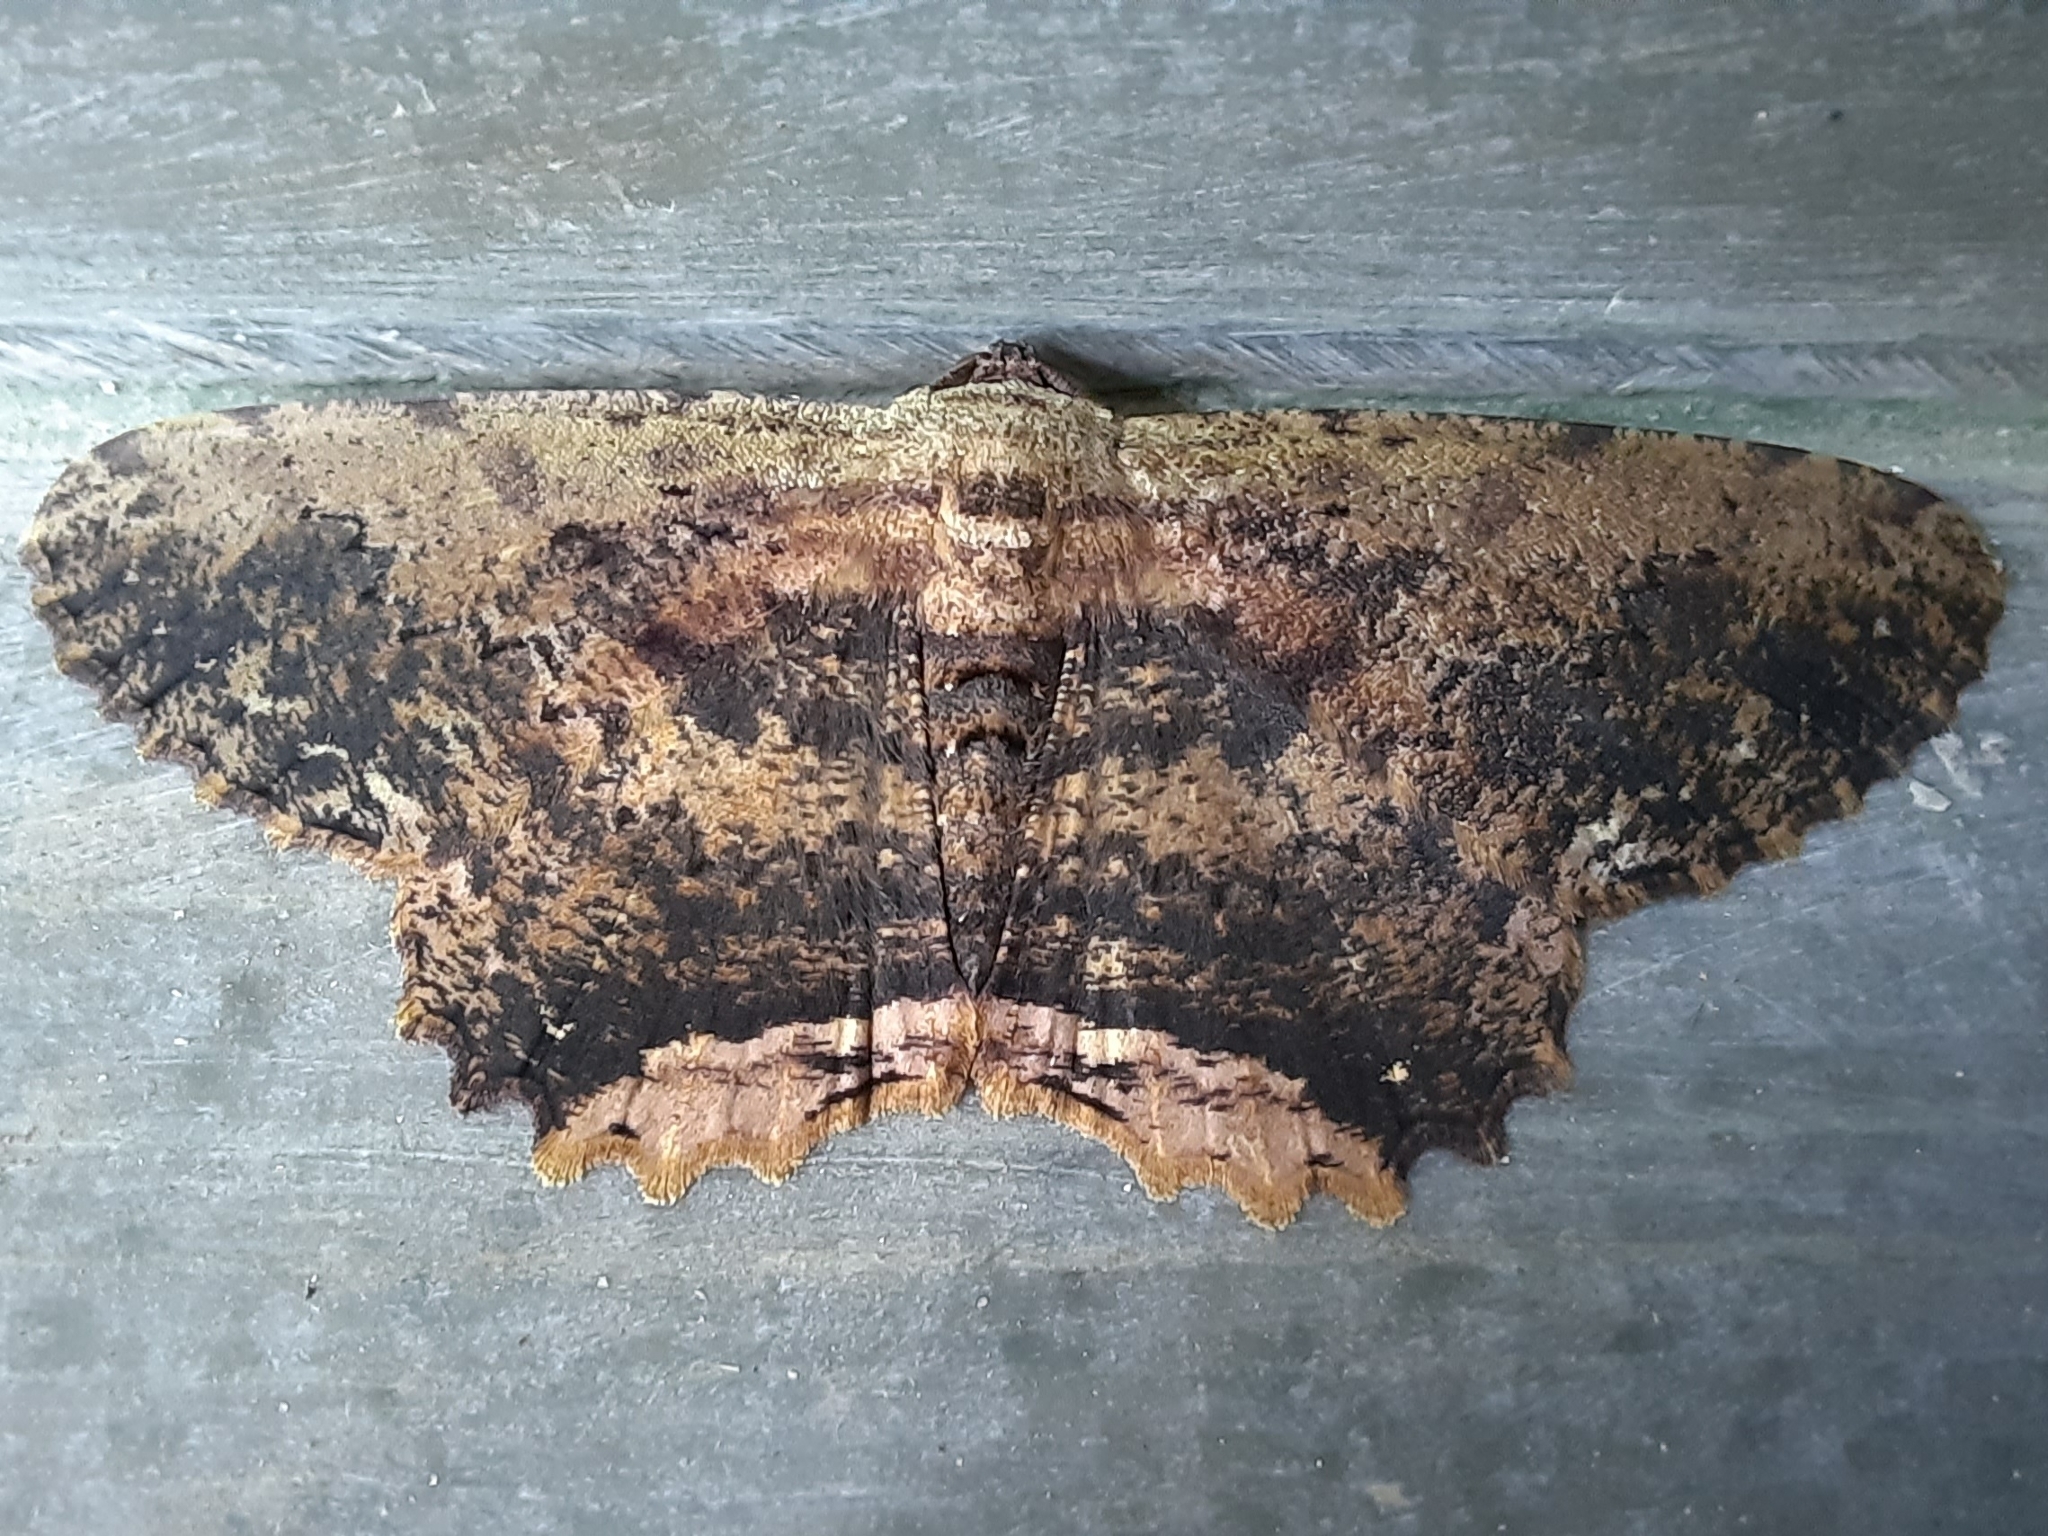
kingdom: Animalia
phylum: Arthropoda
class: Insecta
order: Lepidoptera
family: Geometridae
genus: Ruttellerona
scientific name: Ruttellerona pseudocessaria
